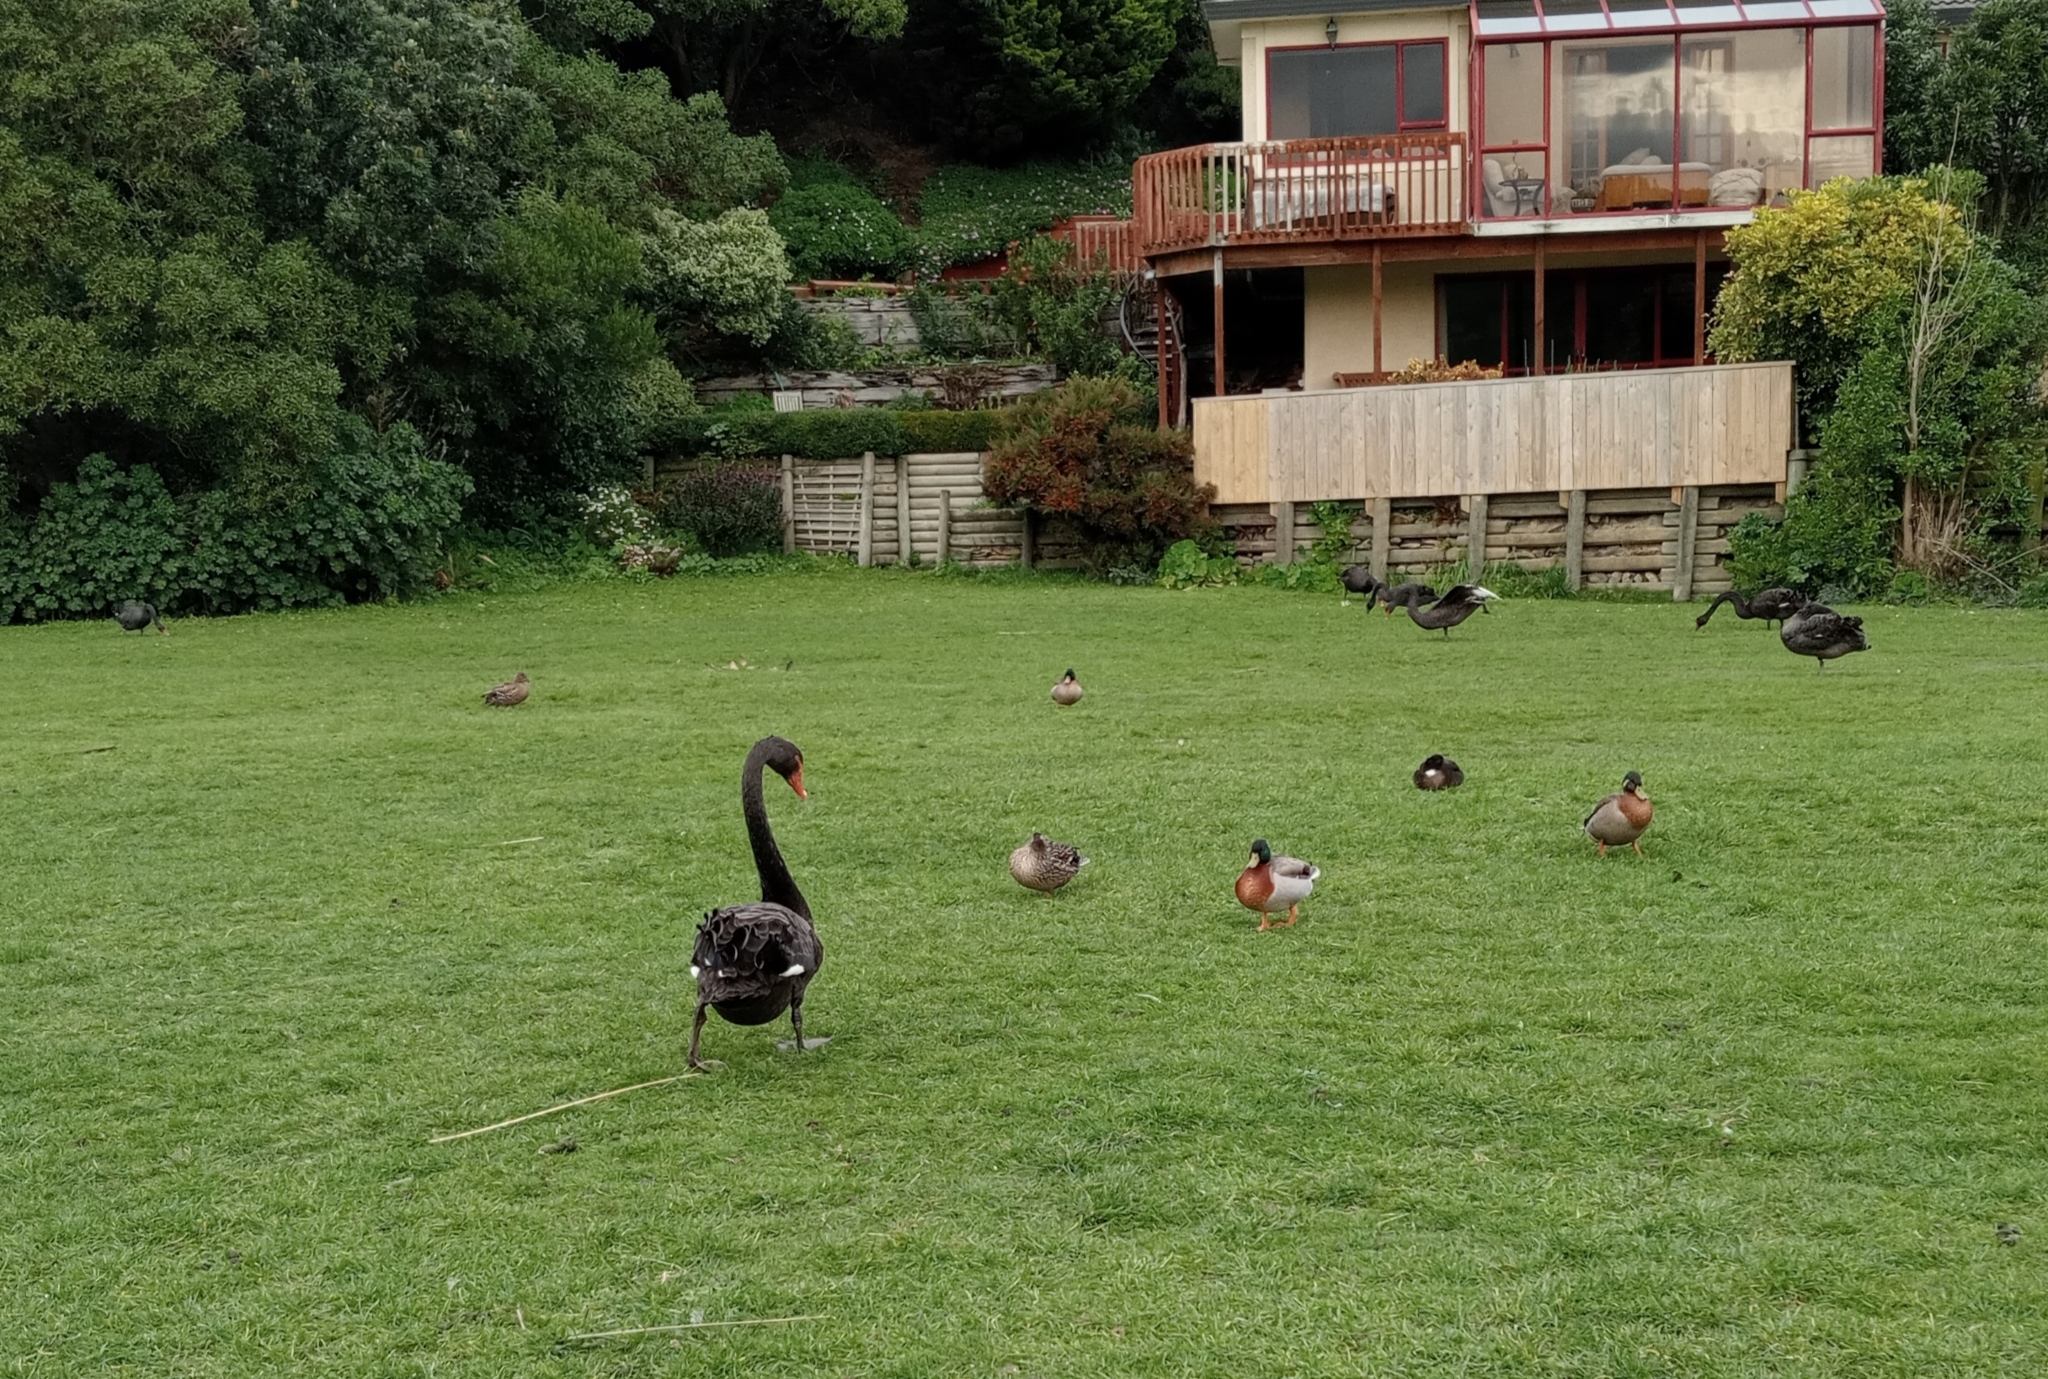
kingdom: Animalia
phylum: Chordata
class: Aves
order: Anseriformes
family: Anatidae
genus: Cygnus
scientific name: Cygnus atratus
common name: Black swan
